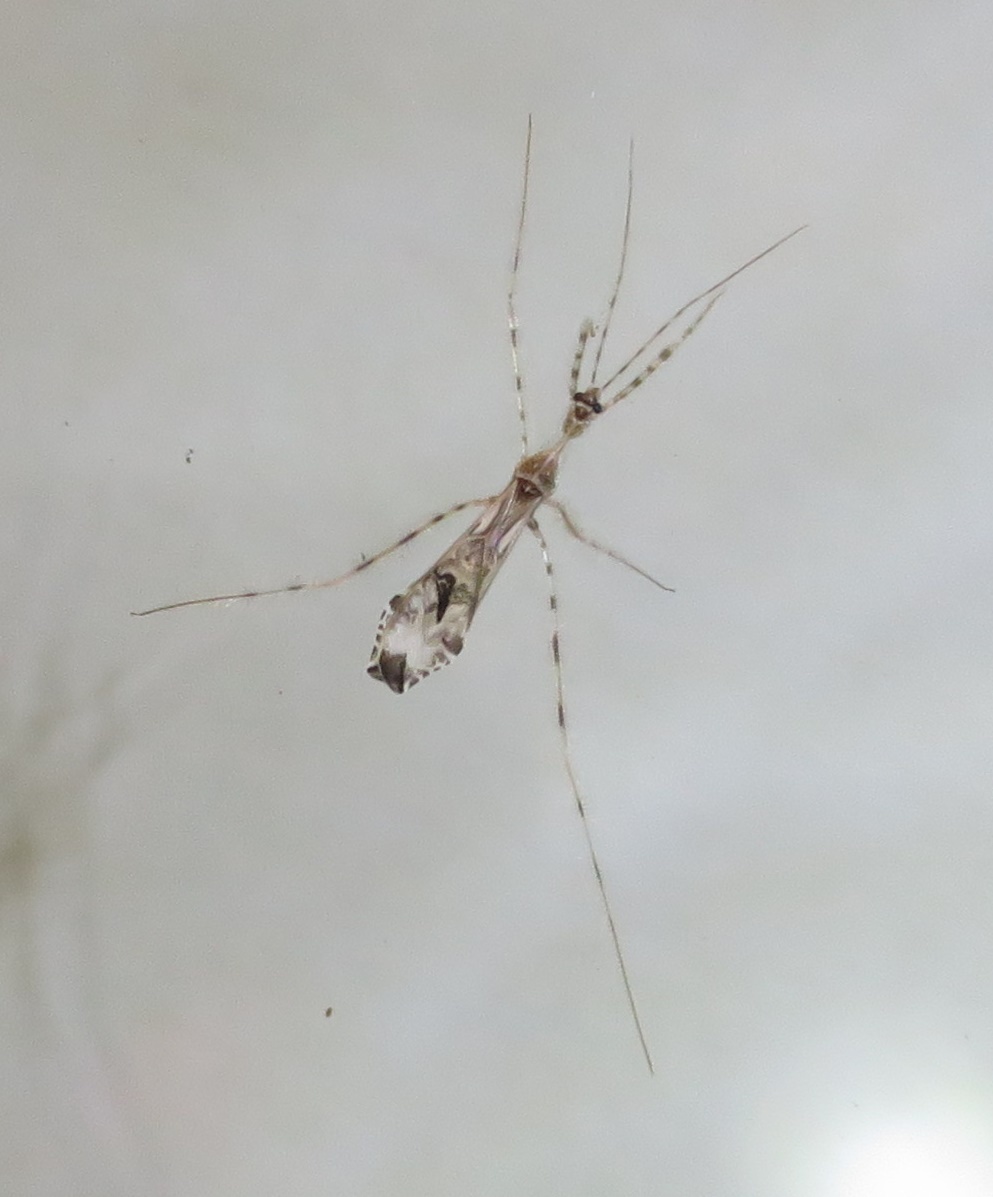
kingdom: Animalia
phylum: Arthropoda
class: Insecta
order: Hemiptera
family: Reduviidae
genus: Stenolemus
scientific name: Stenolemus fraterculus
